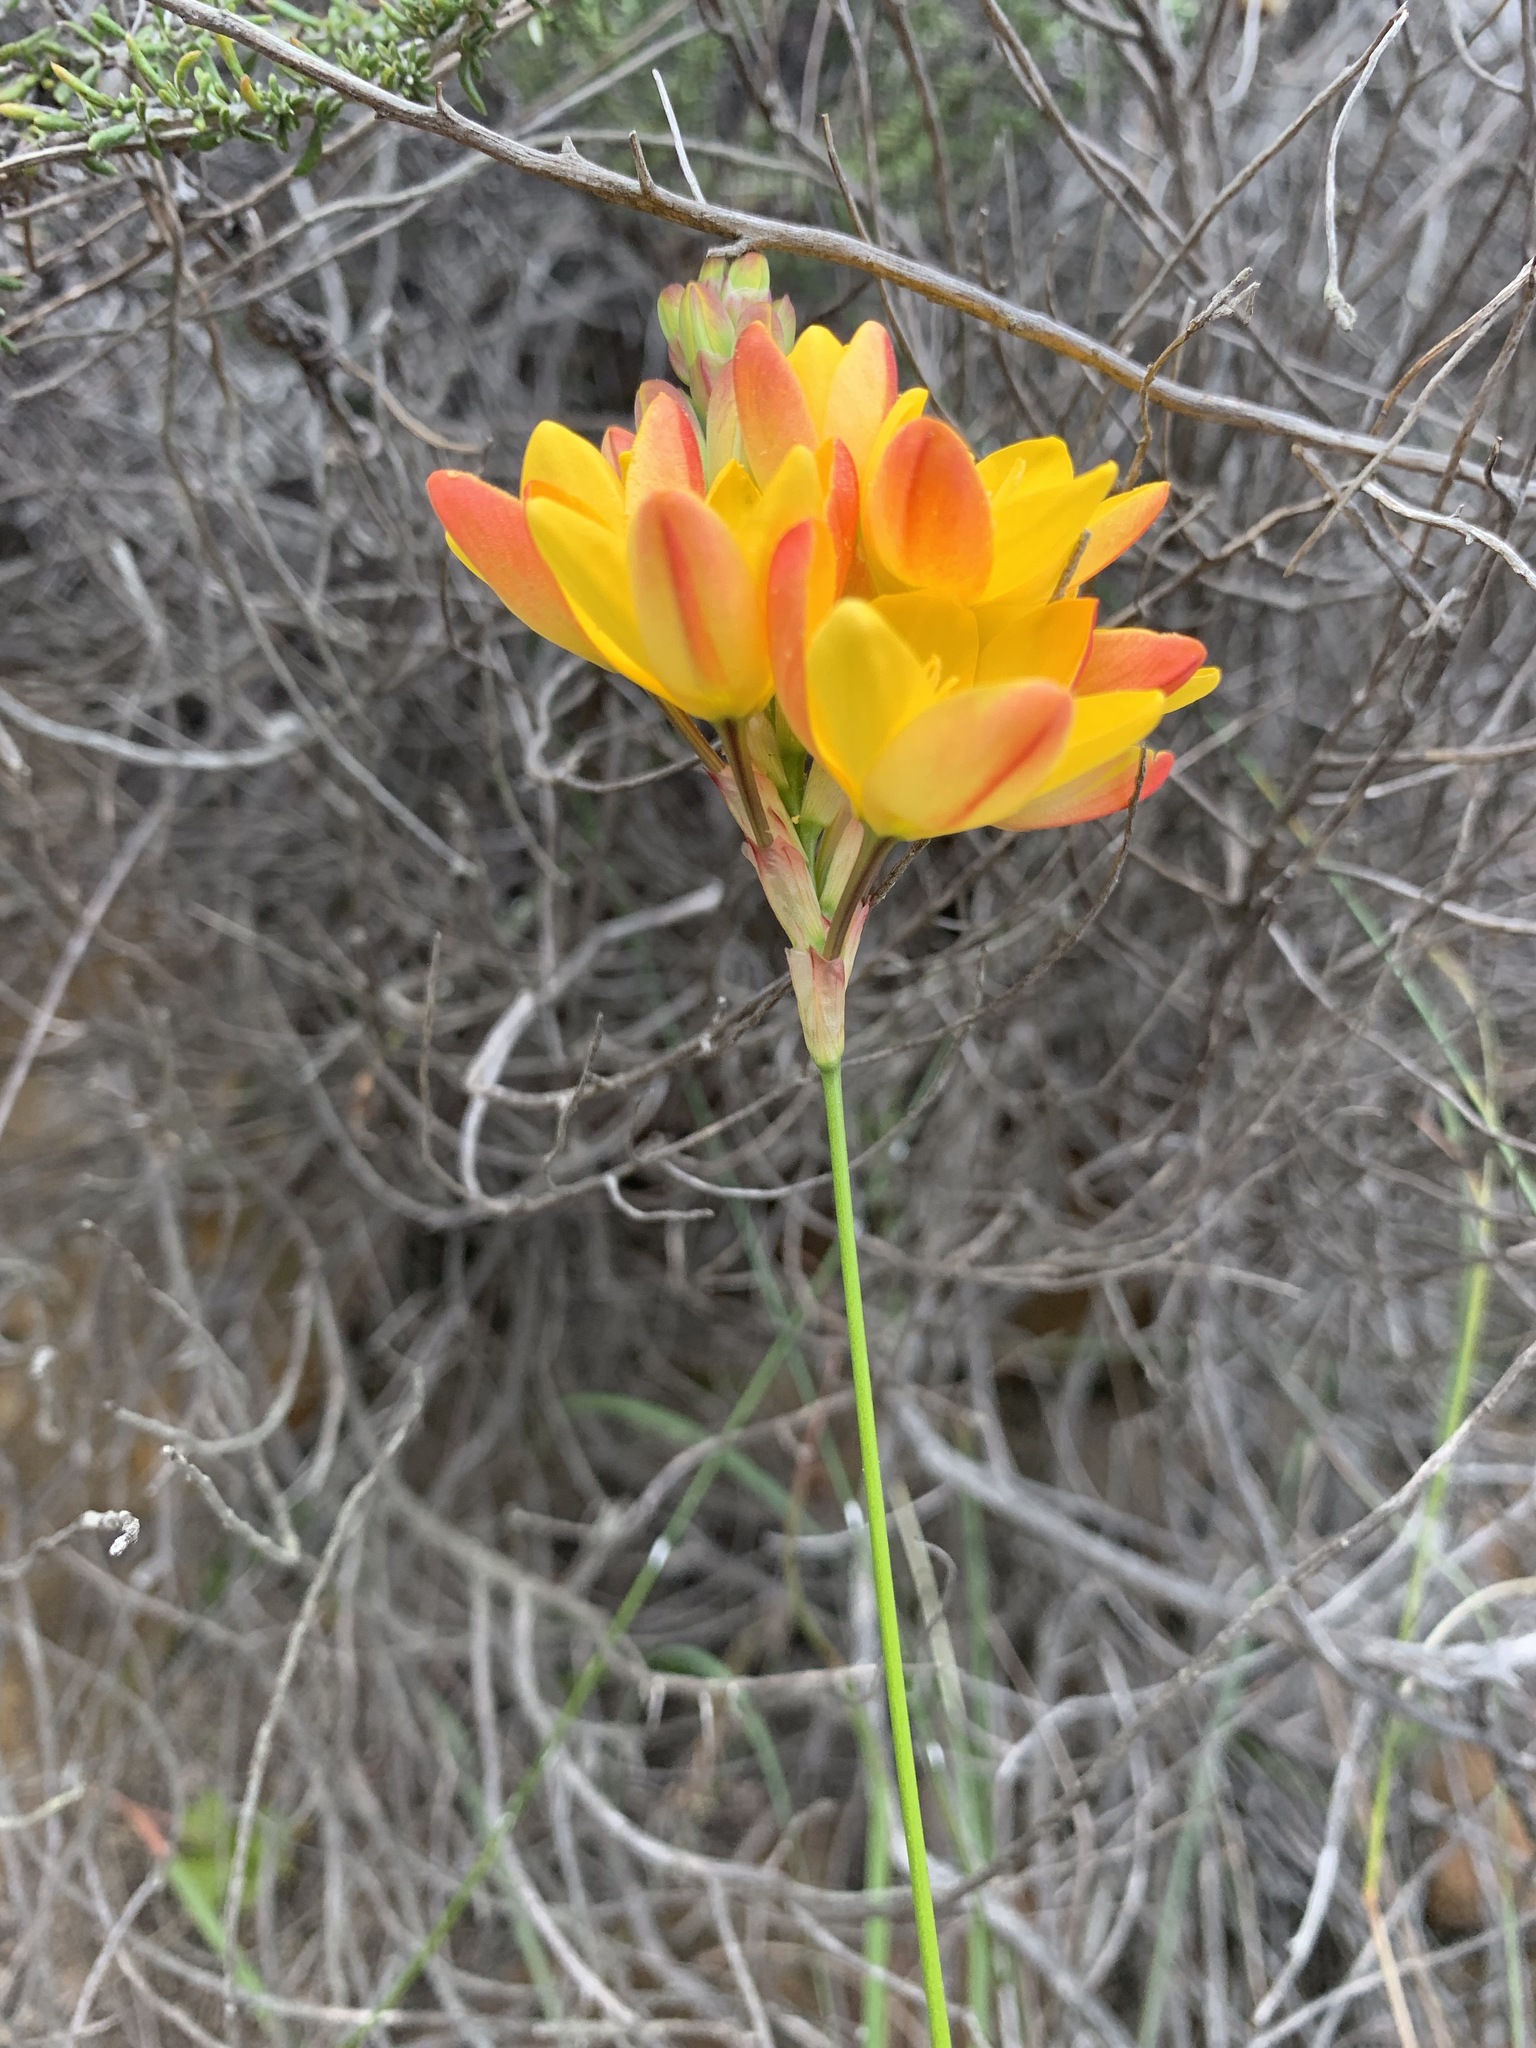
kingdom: Plantae
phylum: Tracheophyta
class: Liliopsida
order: Asparagales
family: Iridaceae
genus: Ixia
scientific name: Ixia dubia
